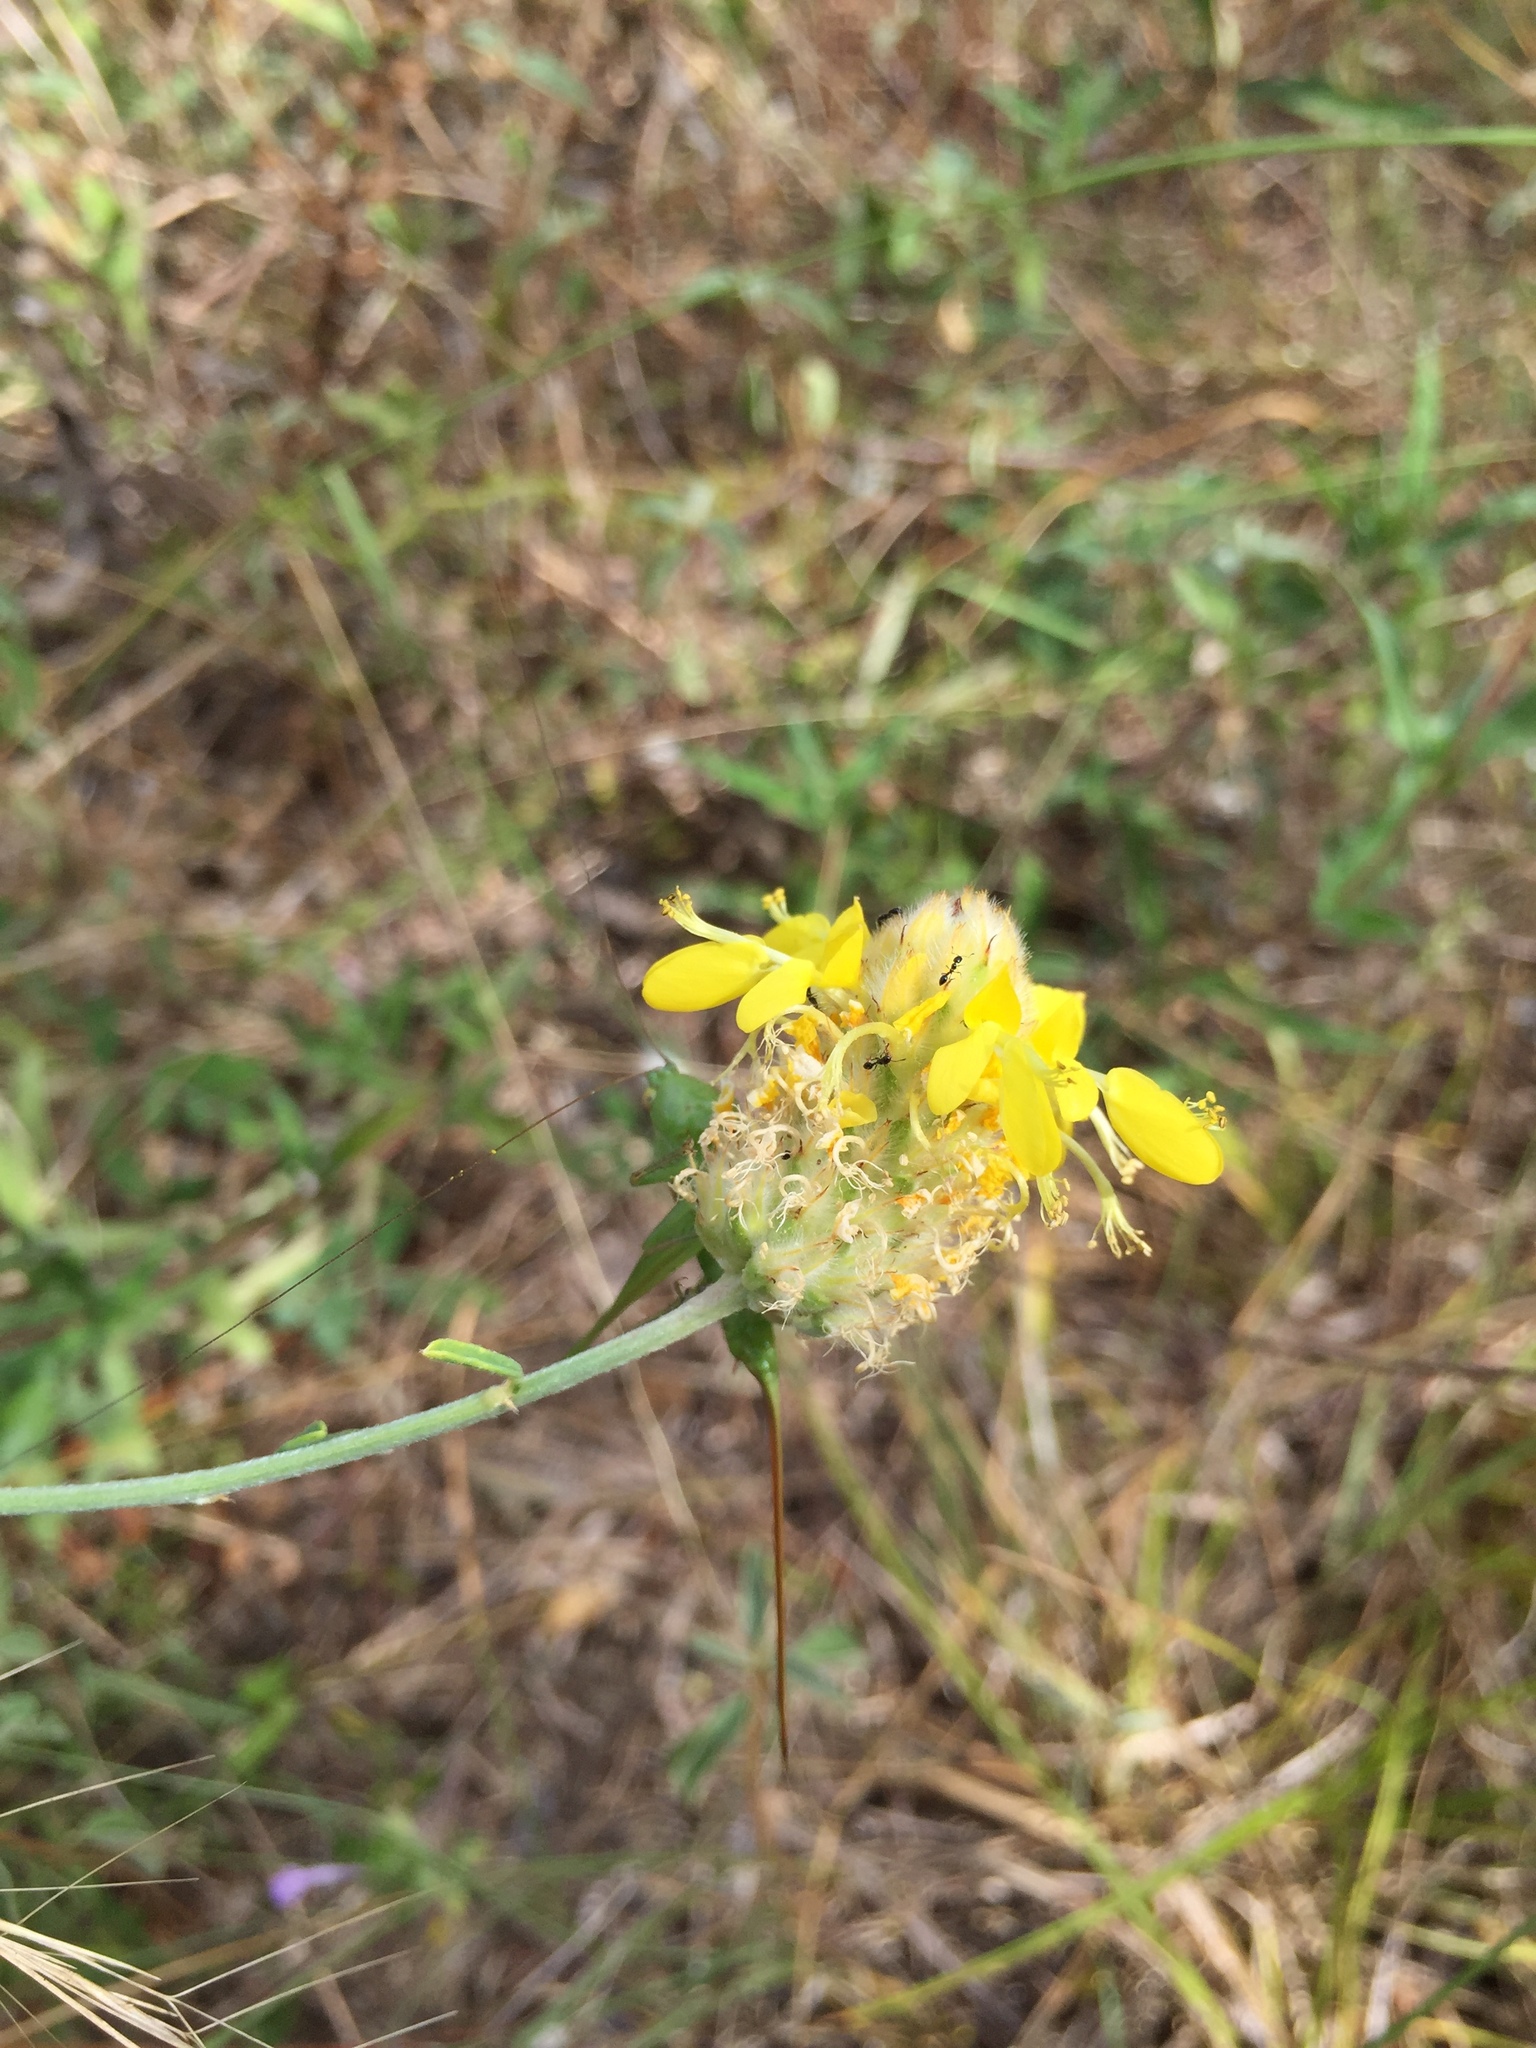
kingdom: Plantae
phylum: Tracheophyta
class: Magnoliopsida
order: Fabales
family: Fabaceae
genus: Dalea
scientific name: Dalea aurea
